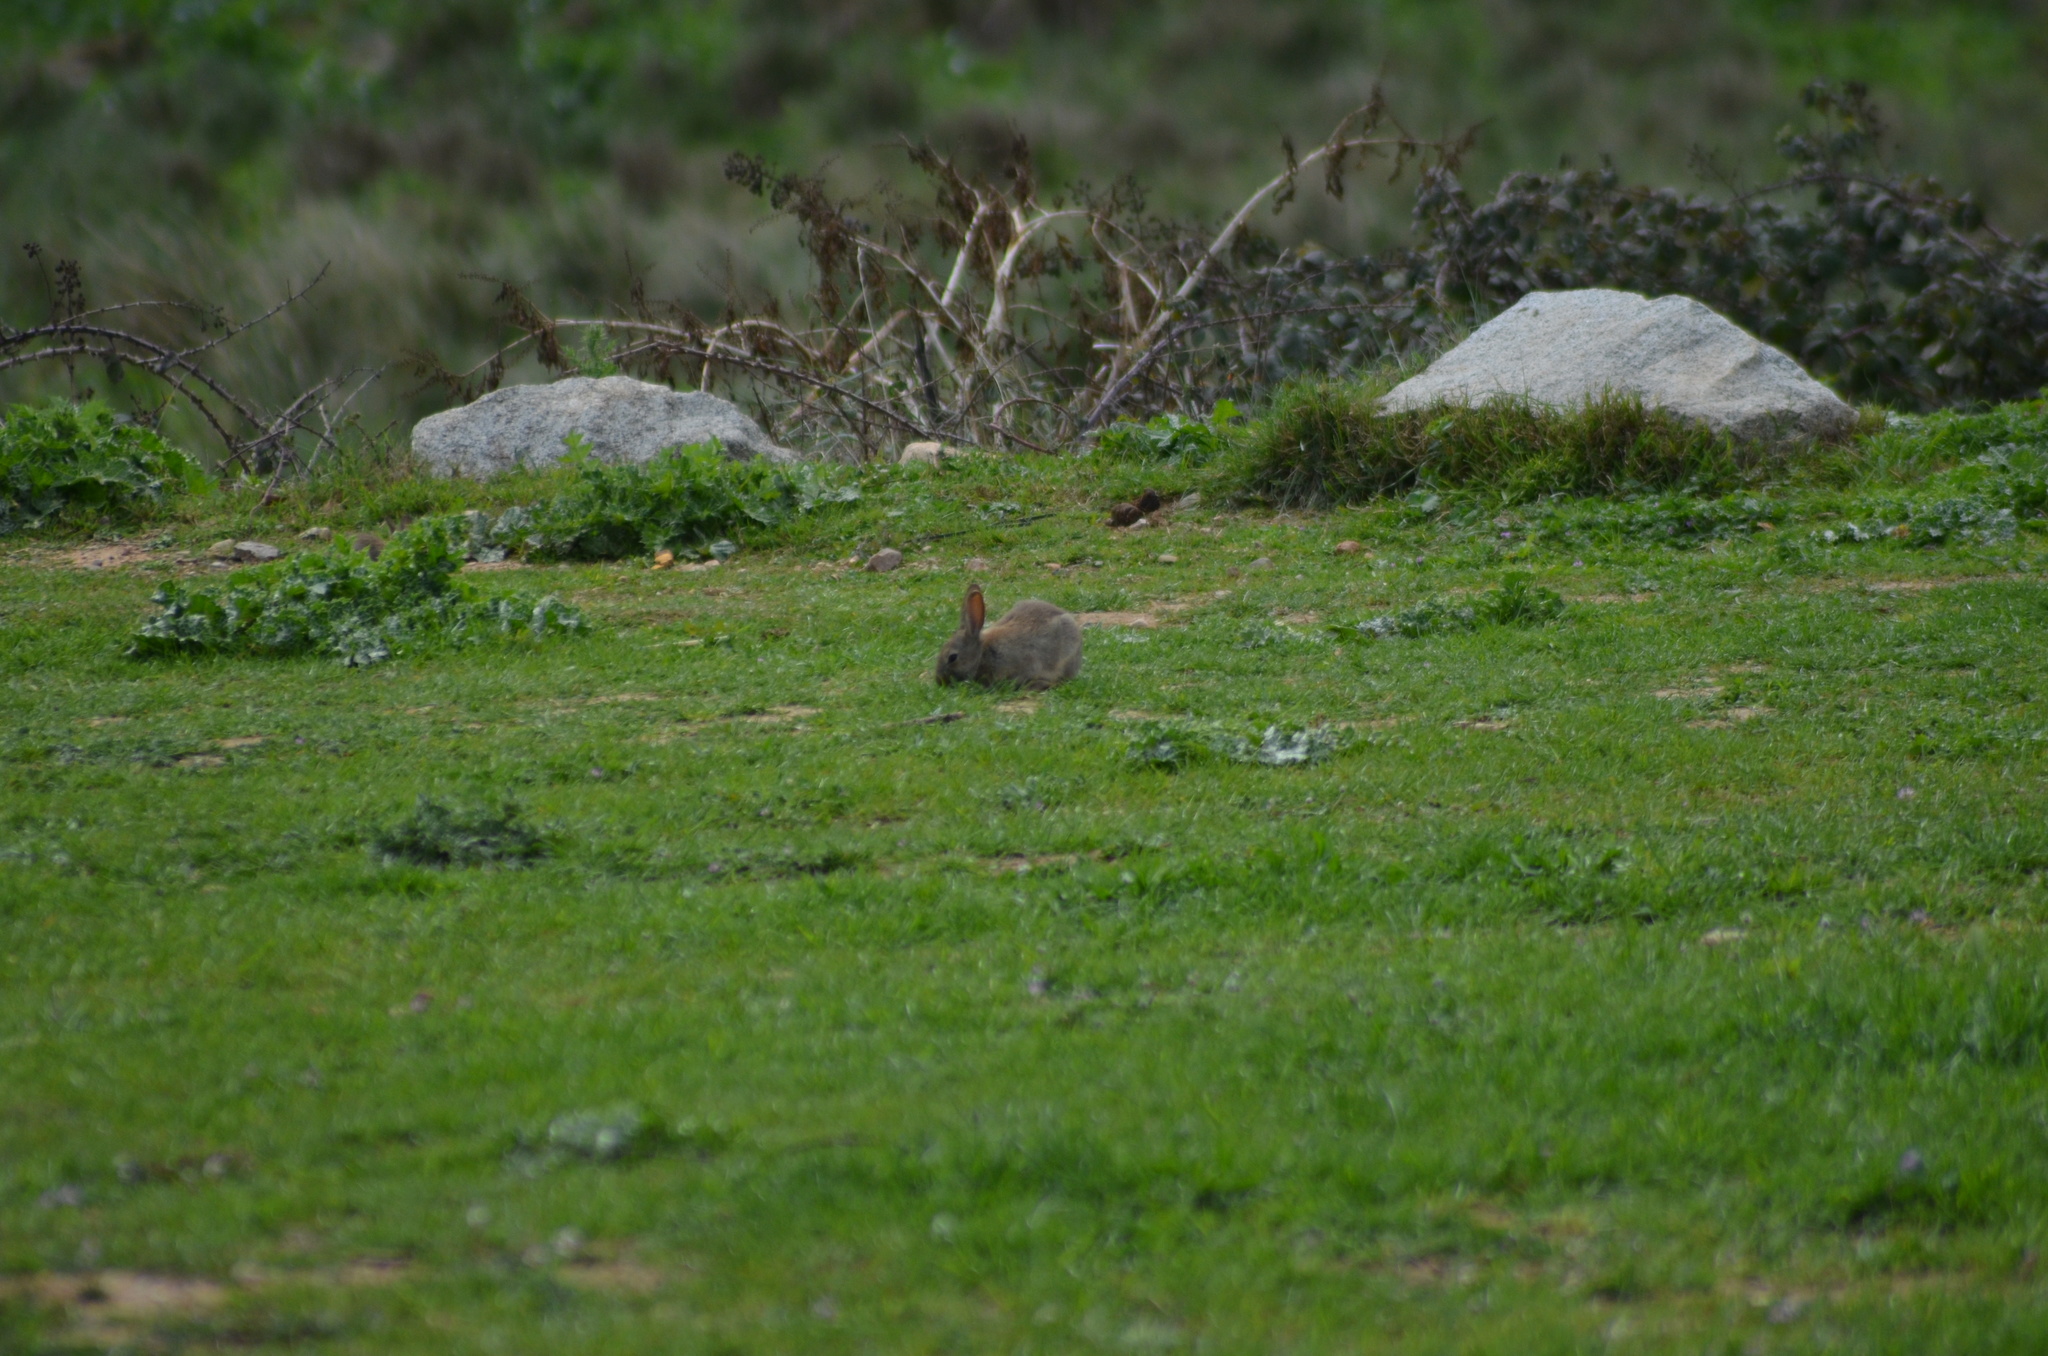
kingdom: Animalia
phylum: Chordata
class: Mammalia
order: Lagomorpha
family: Leporidae
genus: Oryctolagus
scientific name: Oryctolagus cuniculus
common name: European rabbit
